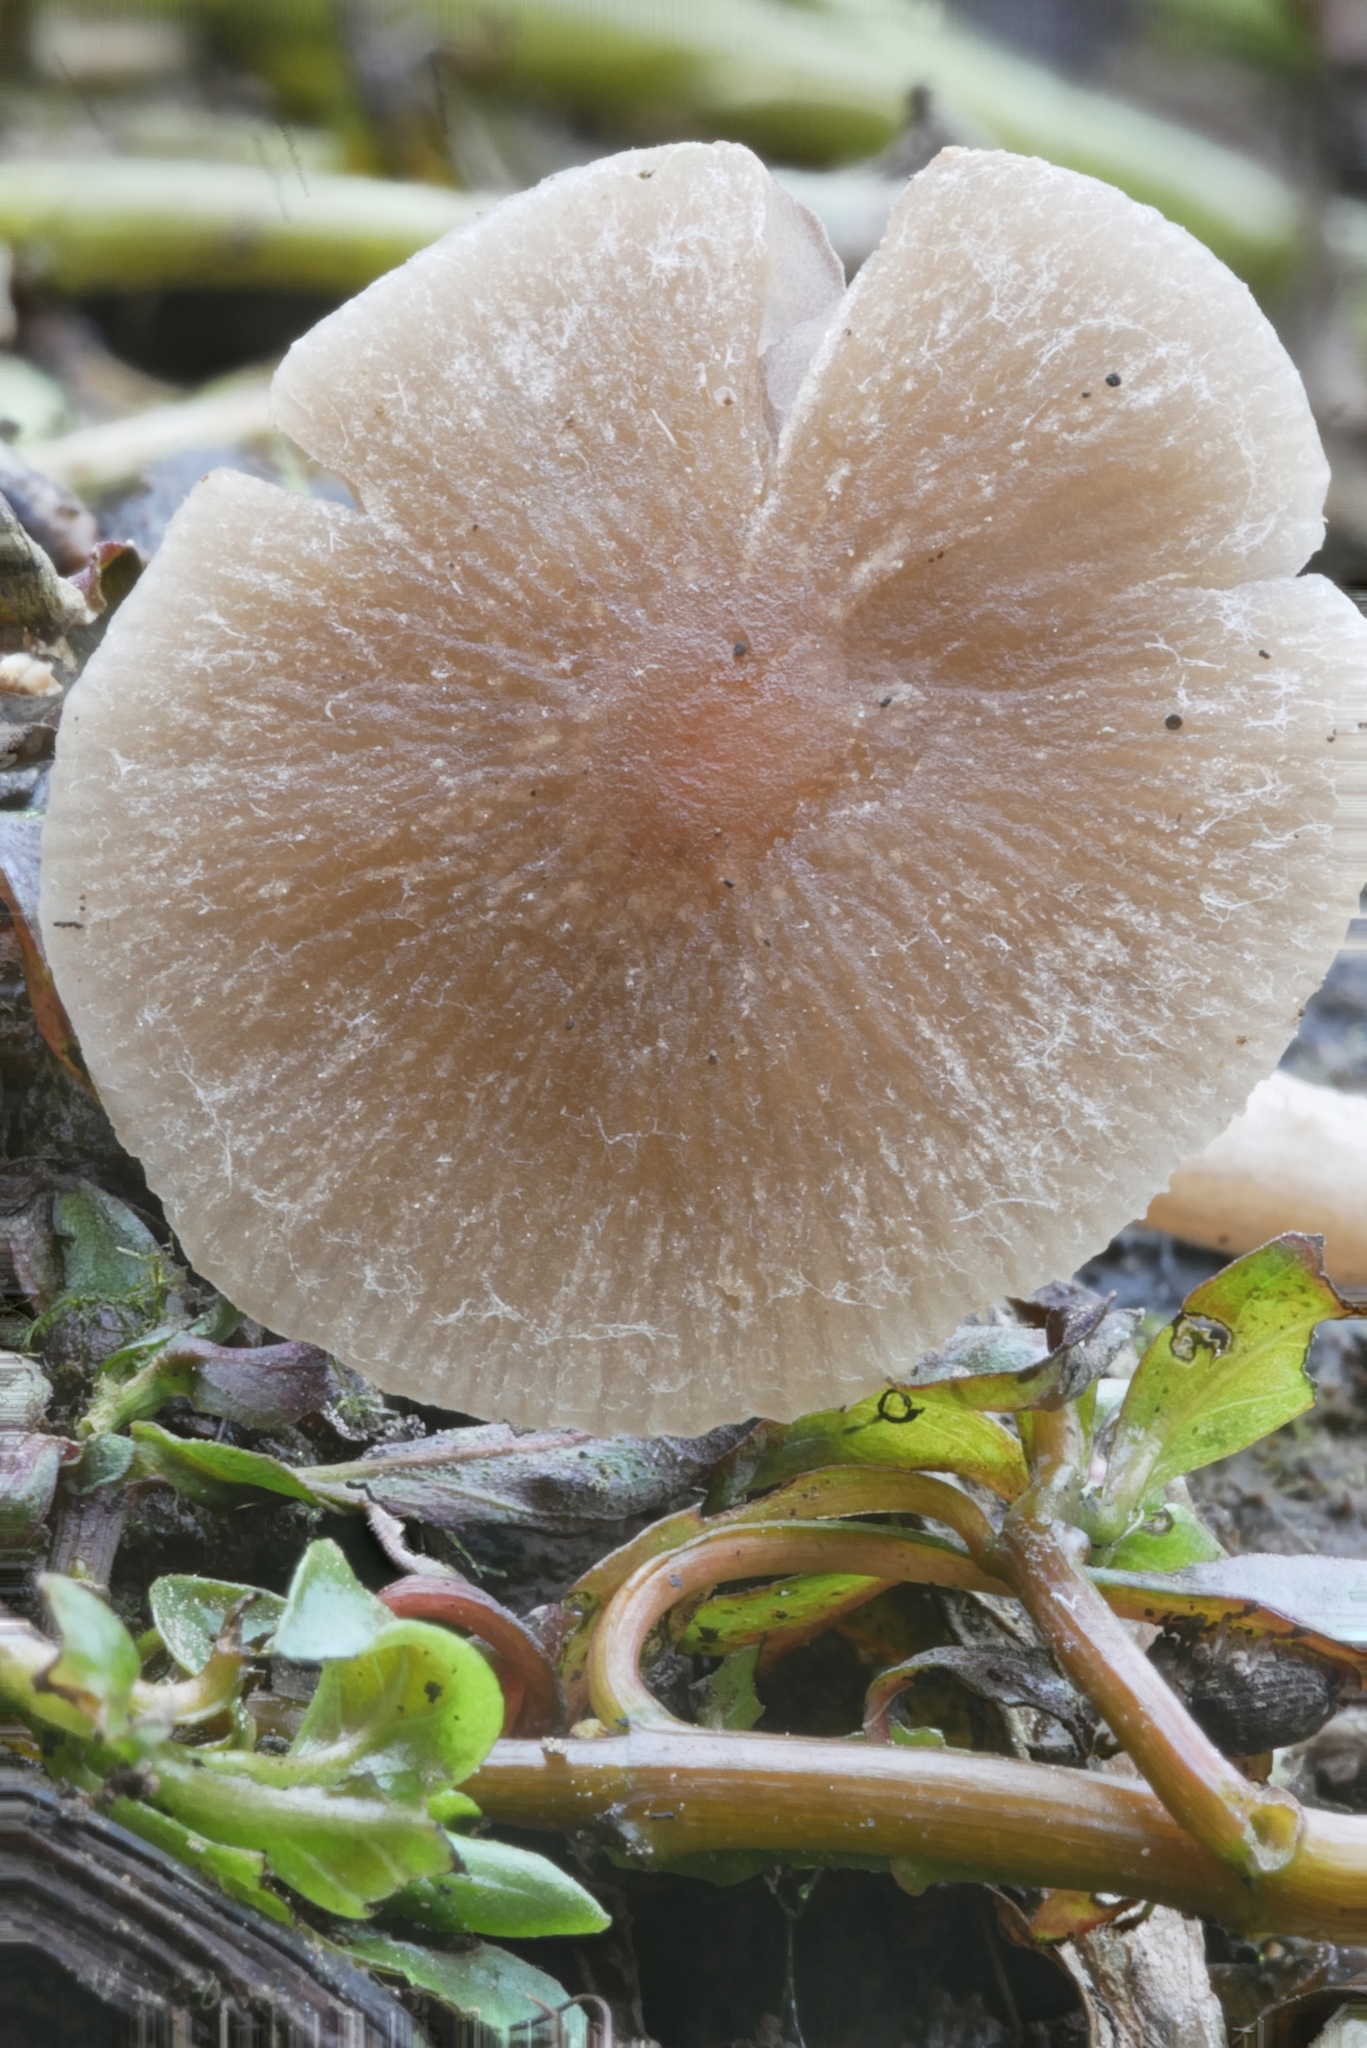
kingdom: Fungi
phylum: Basidiomycota
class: Agaricomycetes
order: Agaricales
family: Psathyrellaceae
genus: Psathyrella
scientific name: Psathyrella ephemera
